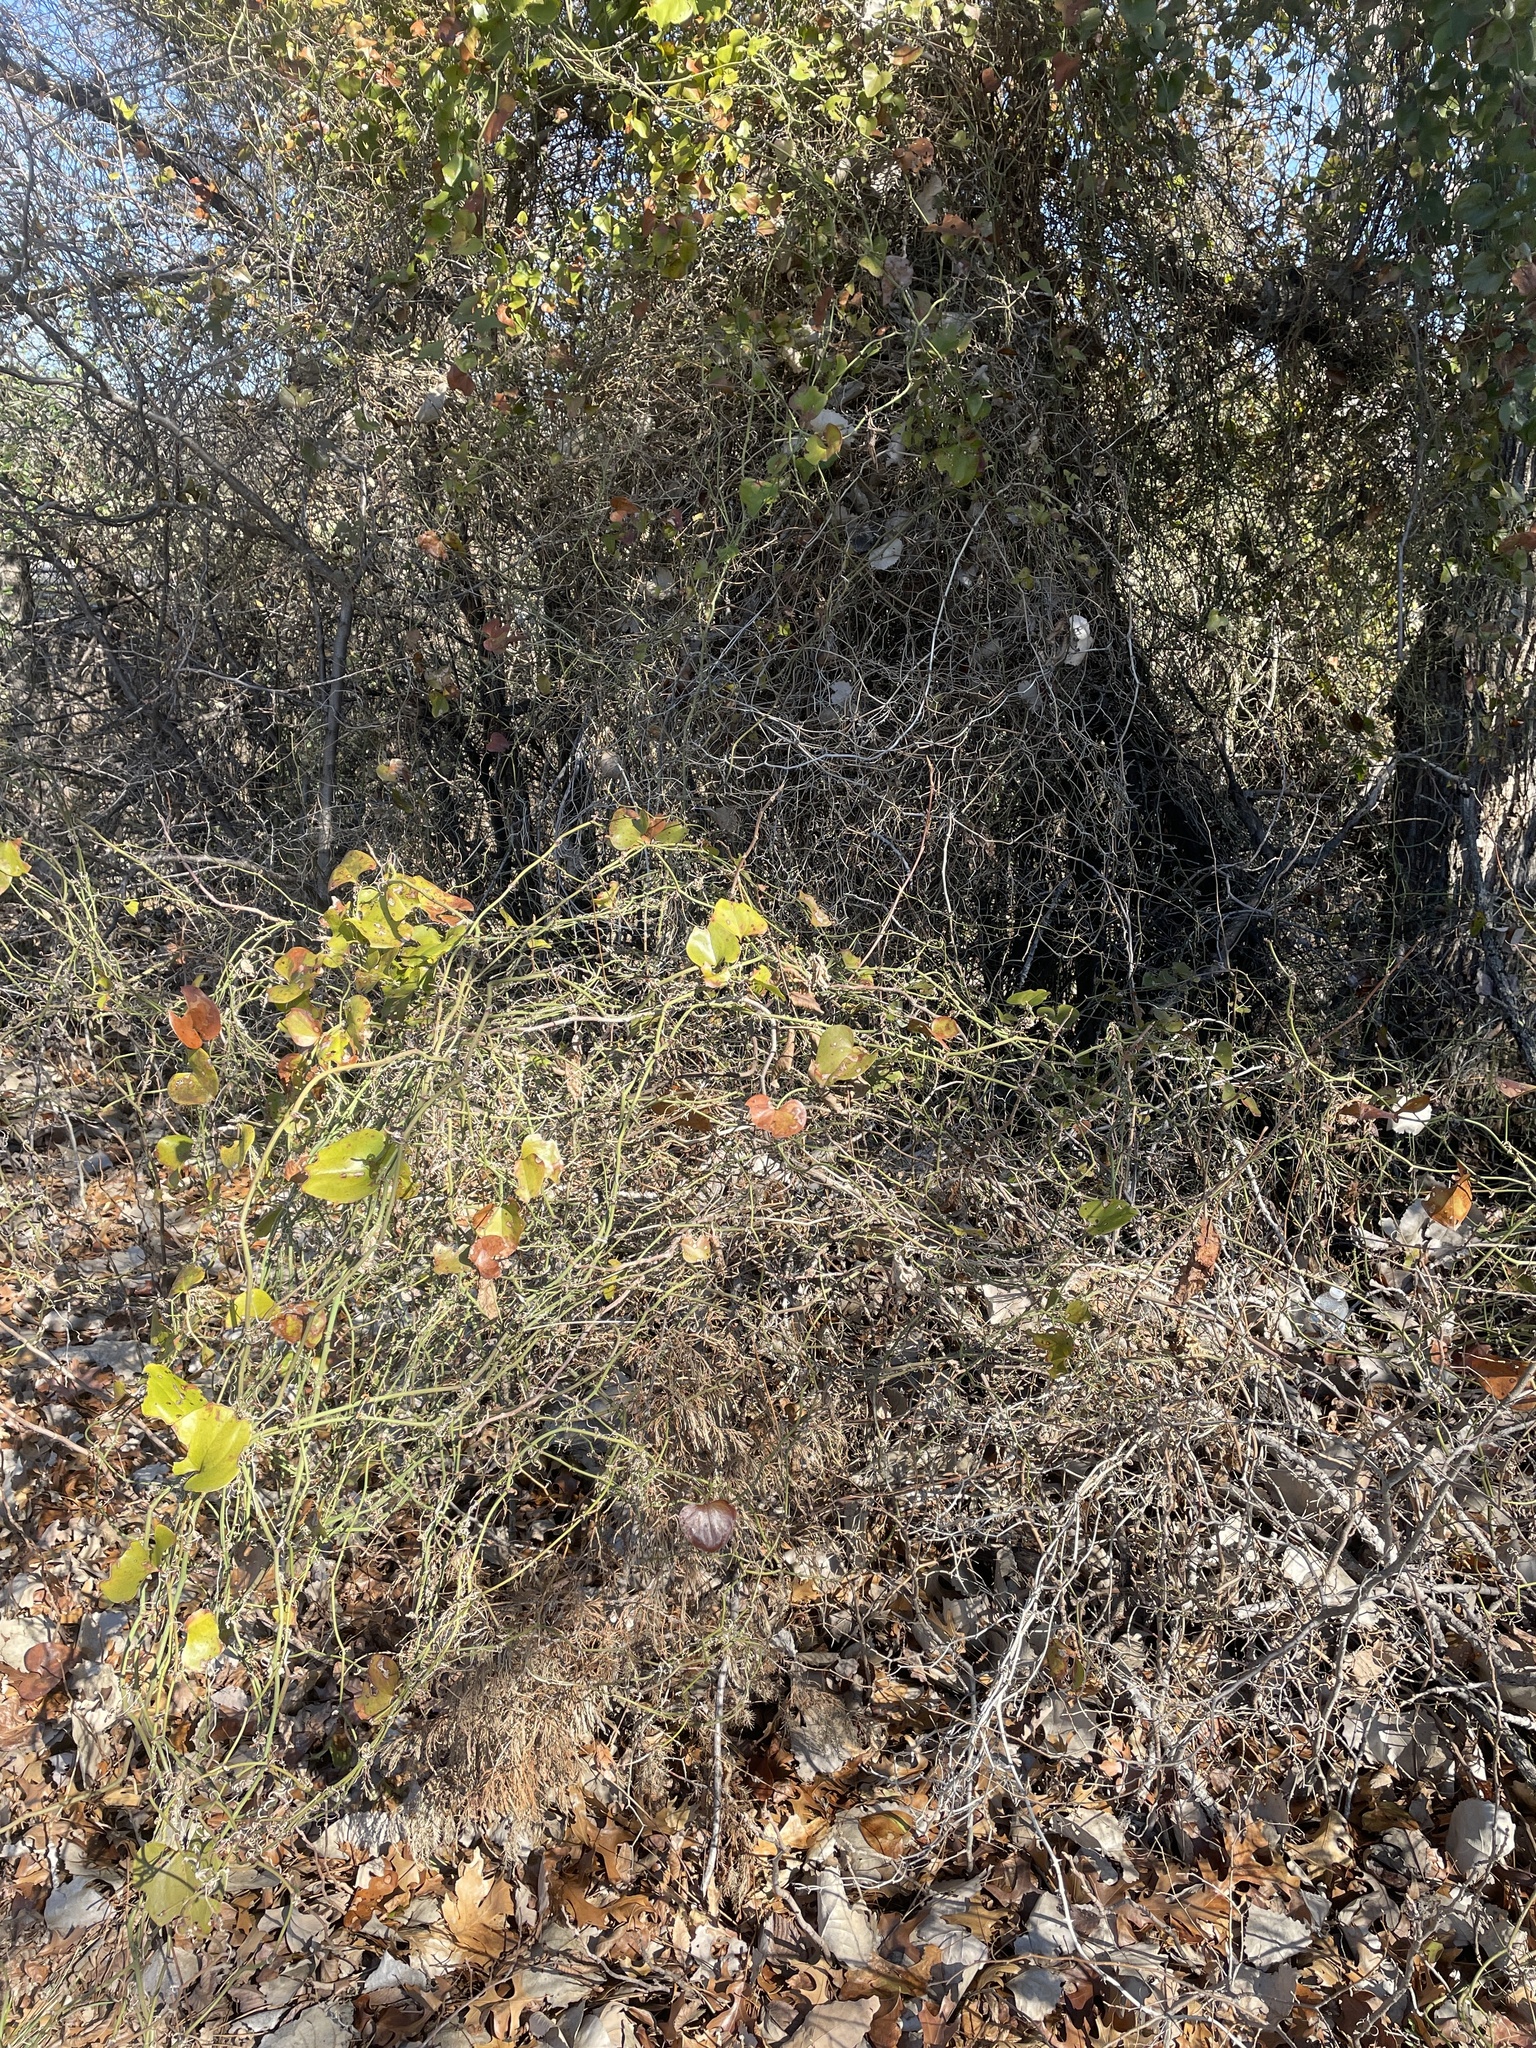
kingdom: Plantae
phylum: Tracheophyta
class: Liliopsida
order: Liliales
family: Smilacaceae
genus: Smilax
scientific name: Smilax bona-nox
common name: Catbrier
